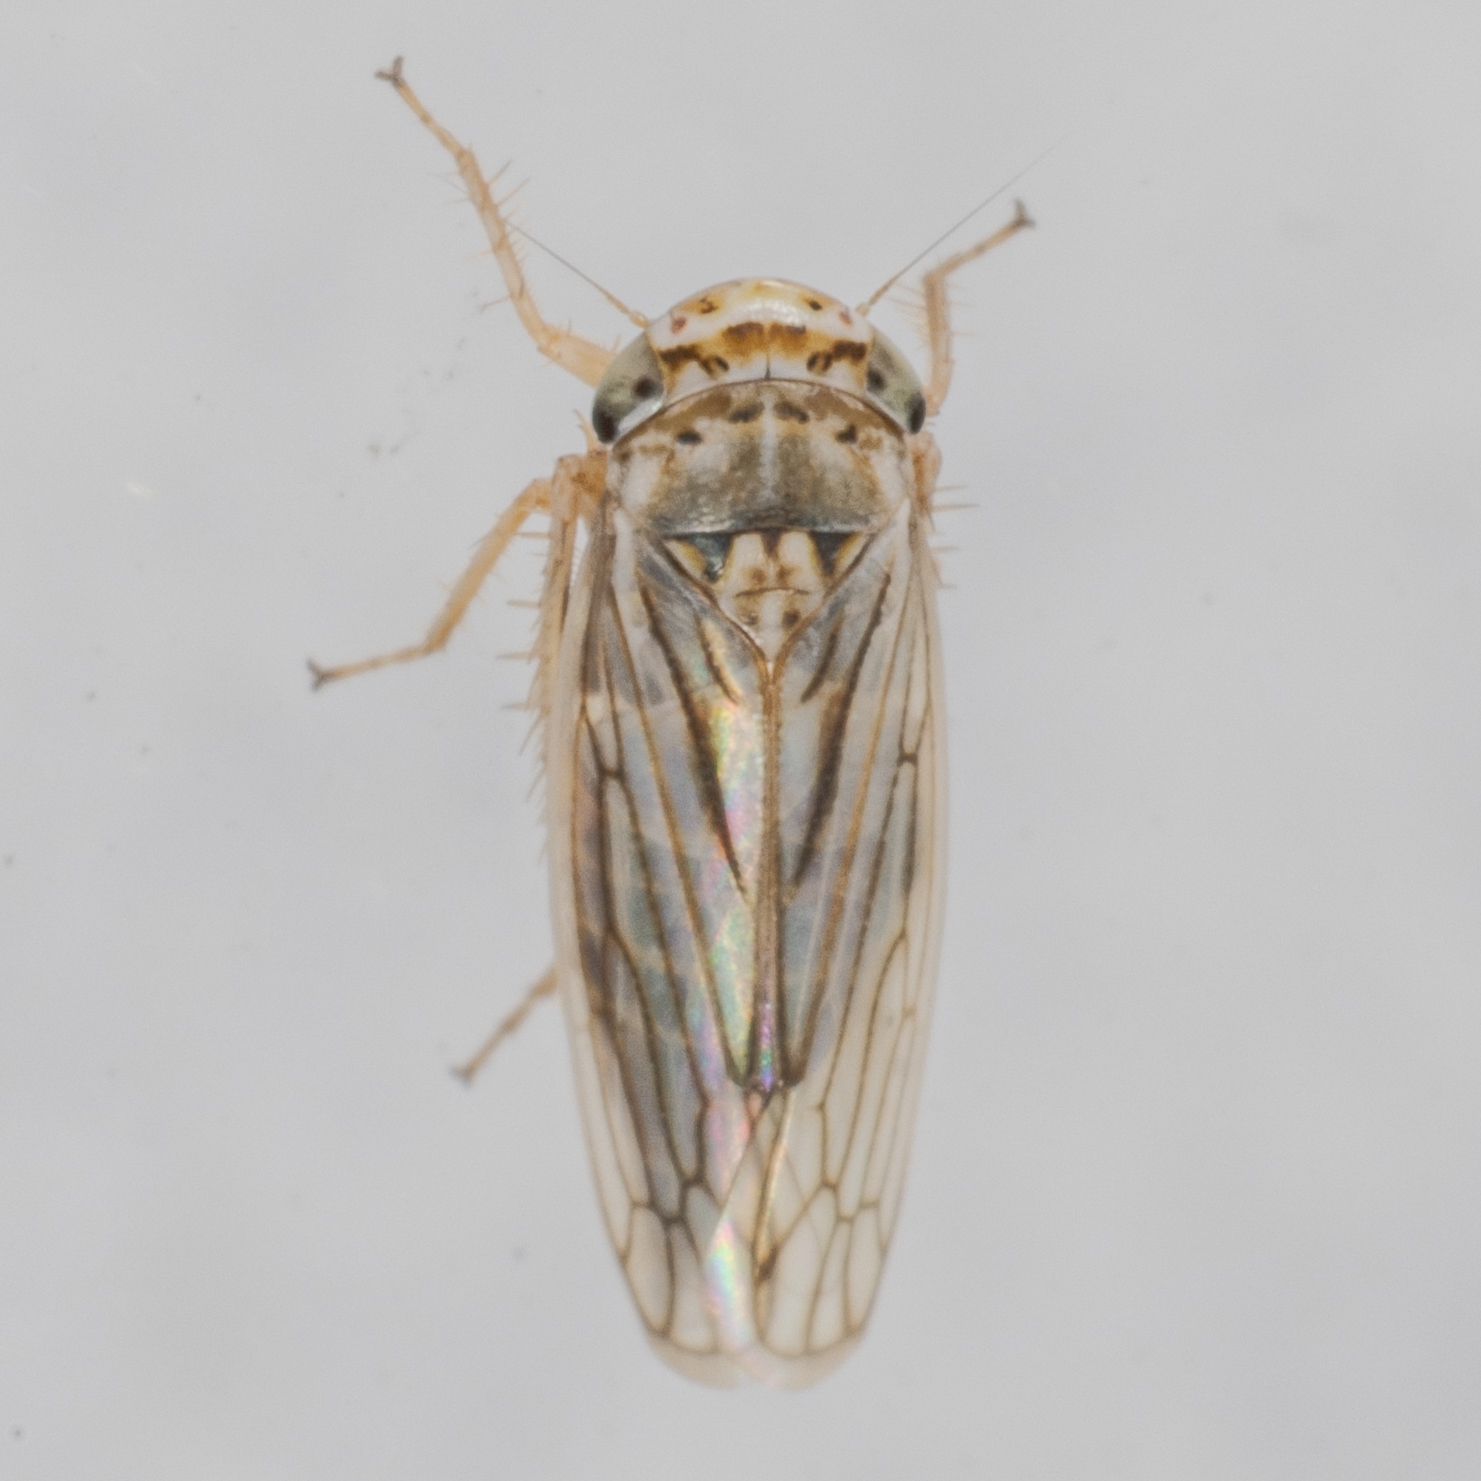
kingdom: Animalia
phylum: Arthropoda
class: Insecta
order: Hemiptera
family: Cicadellidae
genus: Exitianus
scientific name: Exitianus exitiosus
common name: Gray lawn leafhopper
